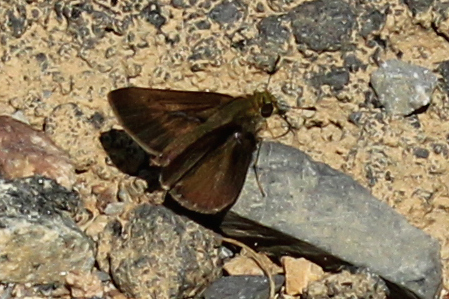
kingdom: Animalia
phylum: Arthropoda
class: Insecta
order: Lepidoptera
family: Hesperiidae
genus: Euphyes
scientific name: Euphyes vestris
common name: Dun skipper
